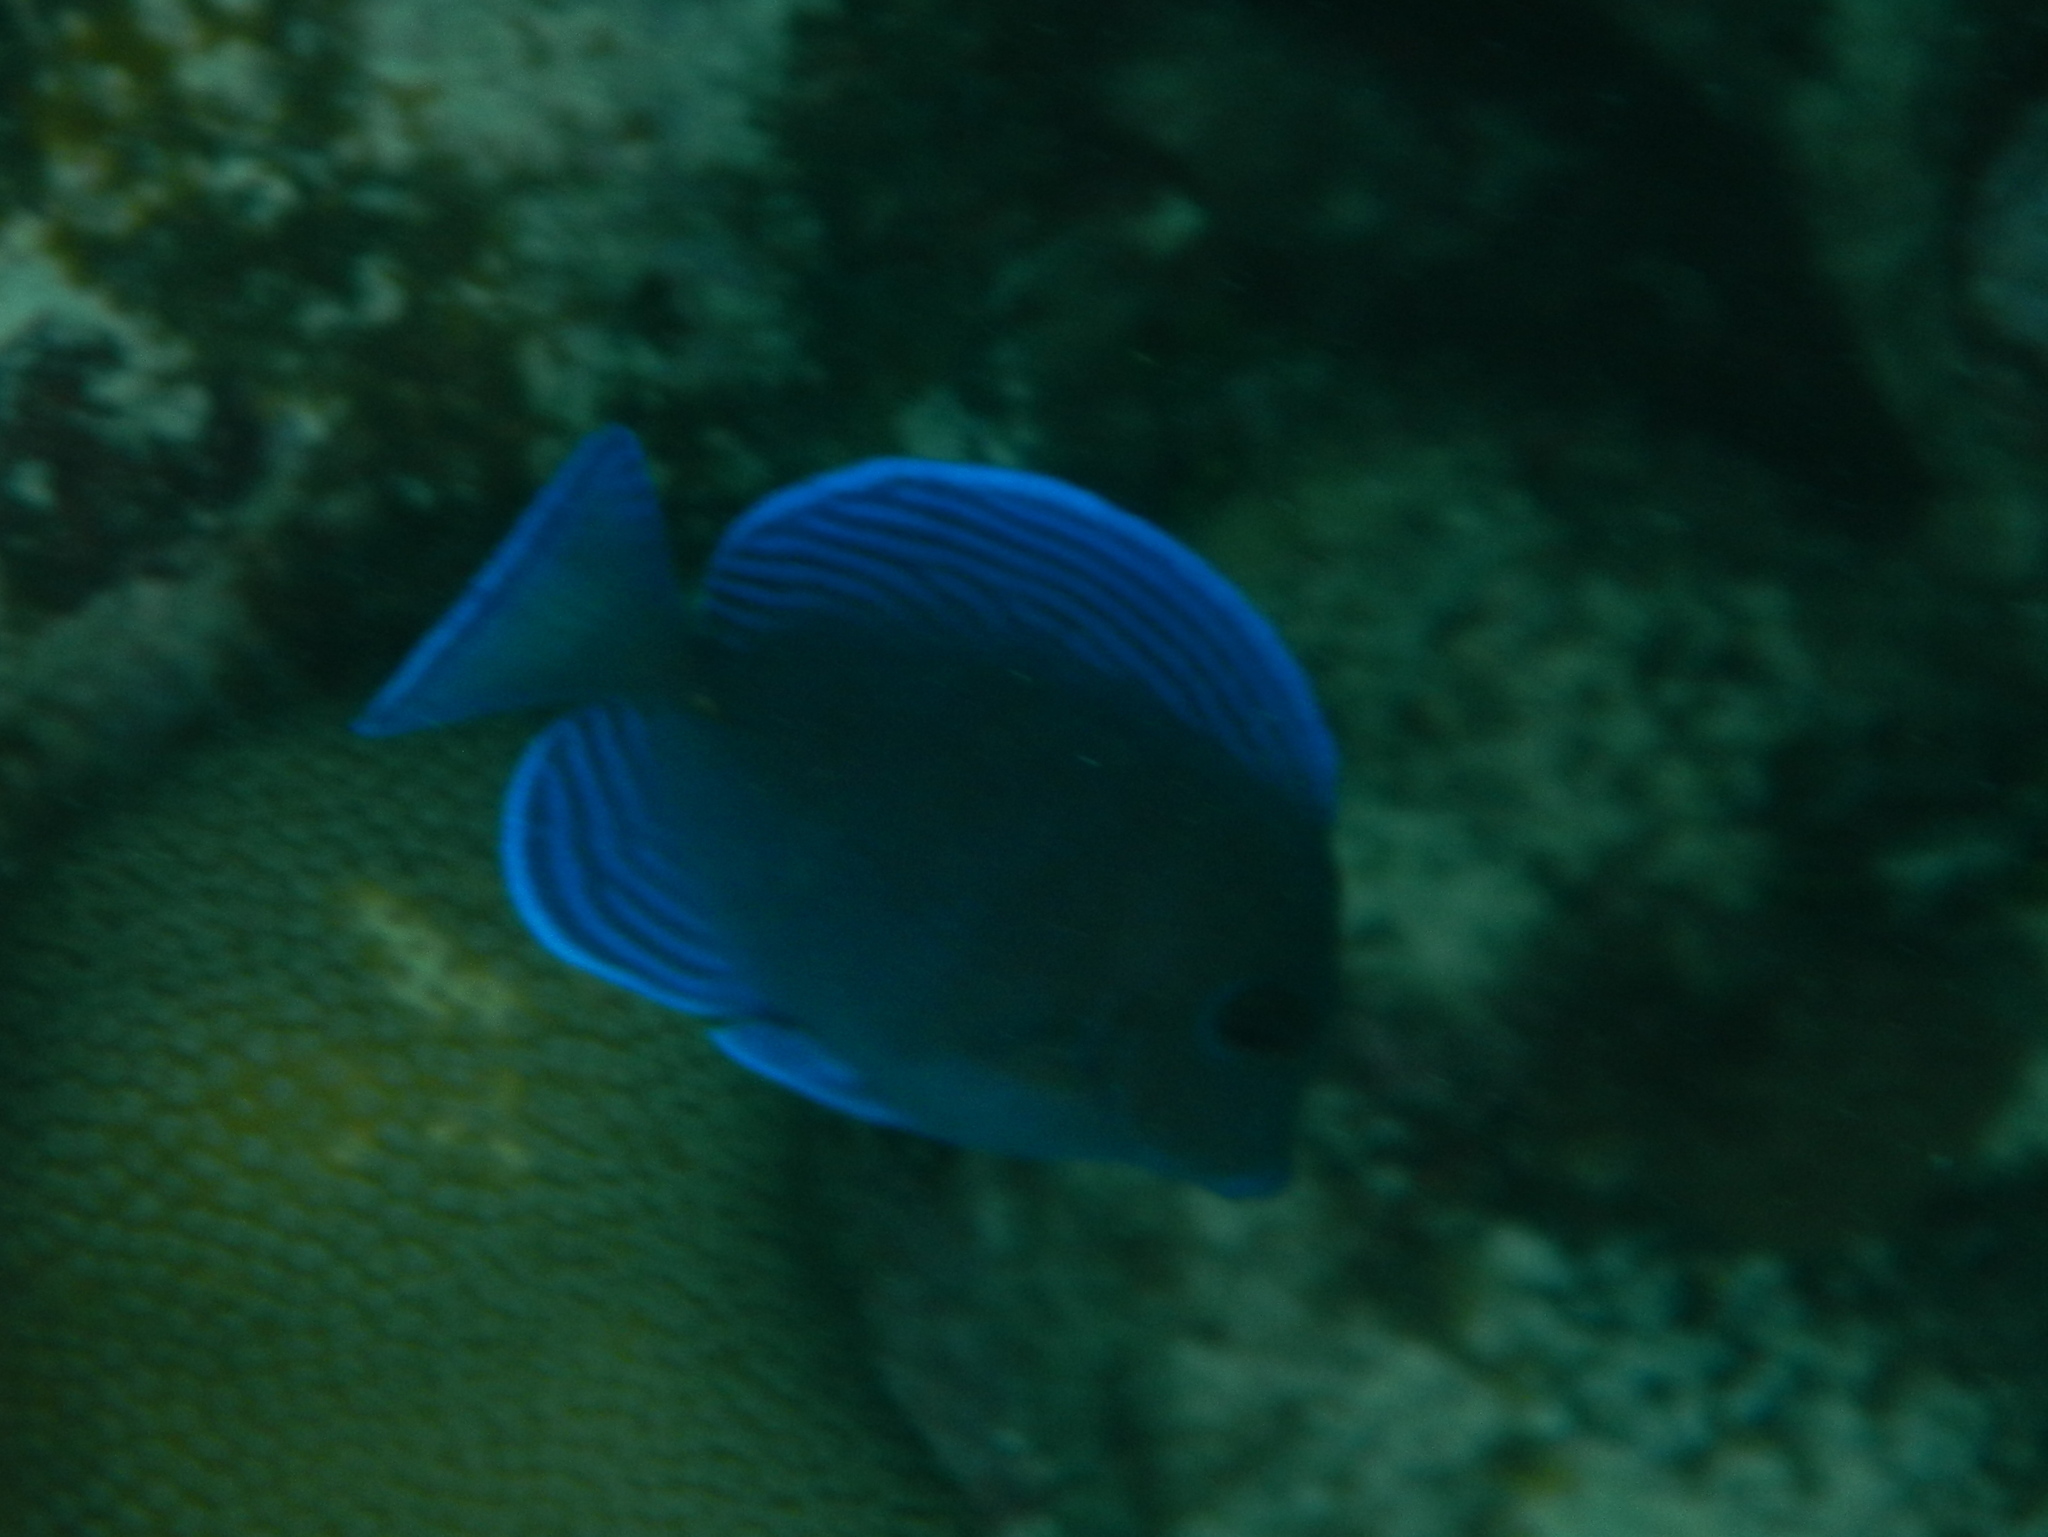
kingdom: Animalia
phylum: Chordata
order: Perciformes
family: Acanthuridae
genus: Acanthurus
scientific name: Acanthurus coeruleus
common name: Blue tang
